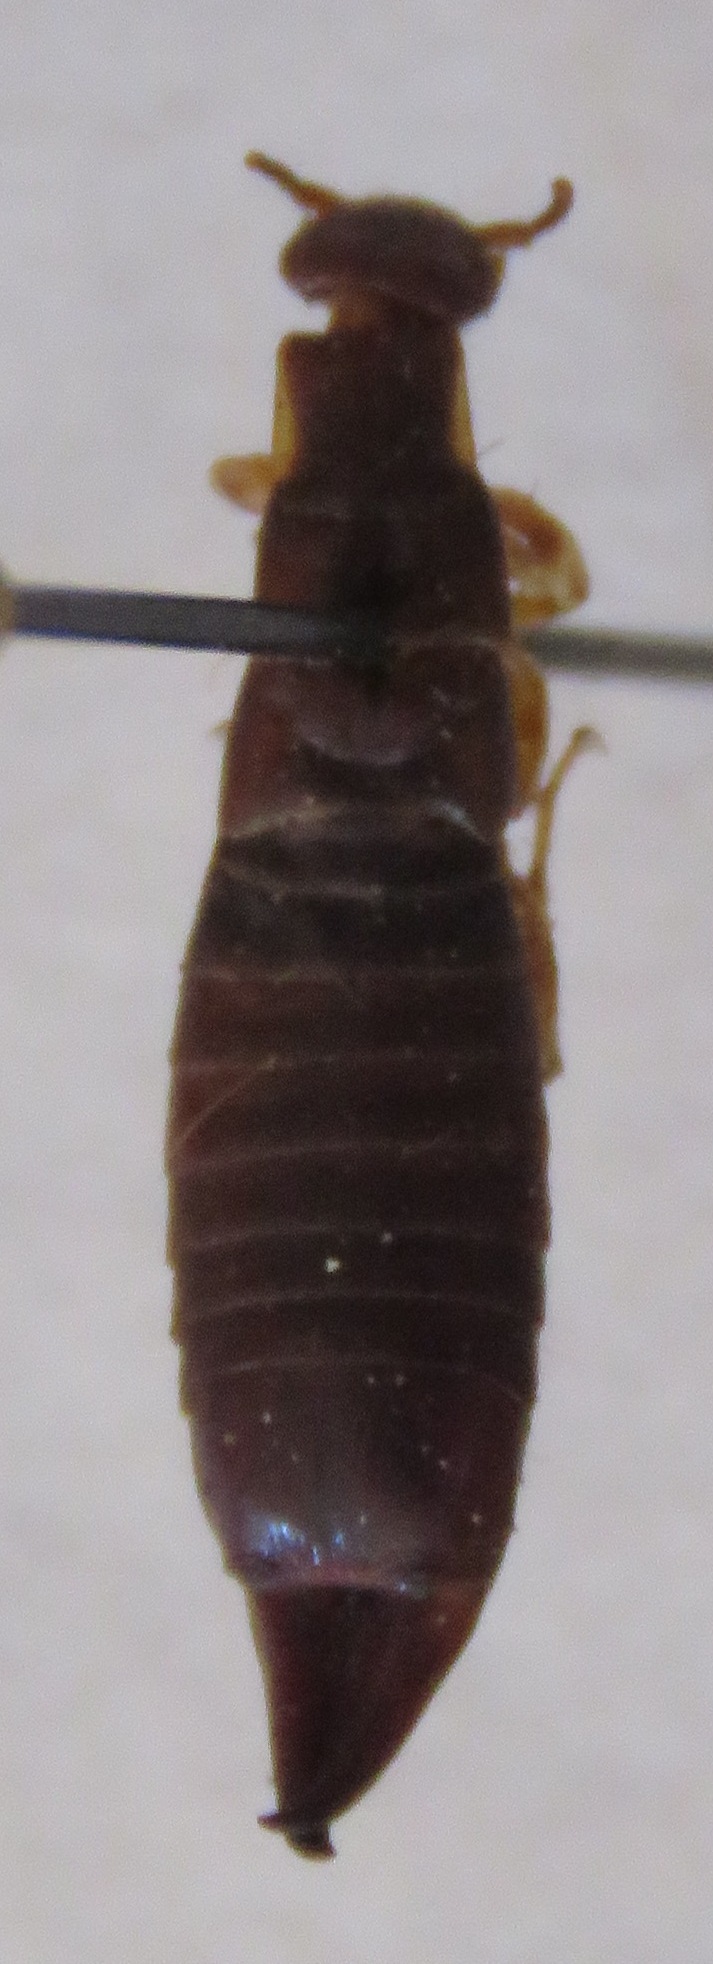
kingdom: Animalia
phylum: Arthropoda
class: Insecta
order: Dermaptera
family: Anisolabididae
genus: Euborellia
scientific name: Euborellia peregrina
